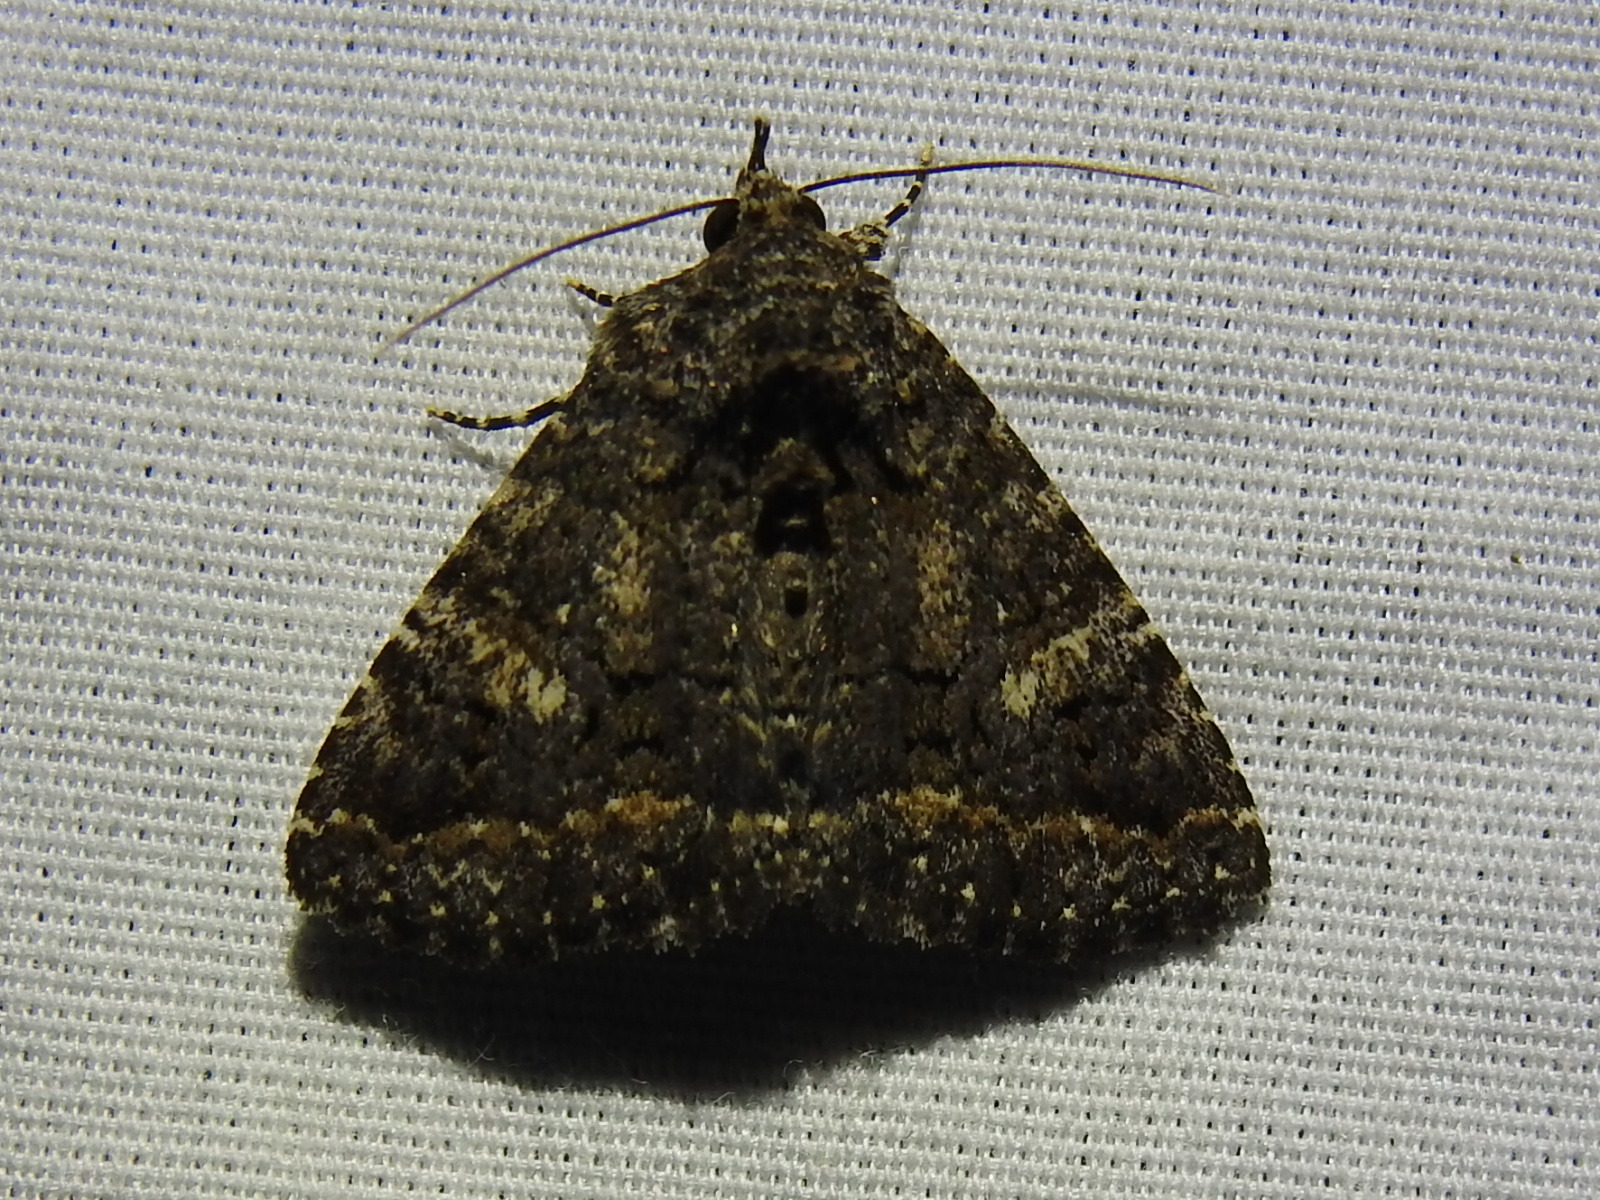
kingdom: Animalia
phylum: Arthropoda
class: Insecta
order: Lepidoptera
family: Erebidae
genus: Coxina
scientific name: Coxina cinctipalpis
